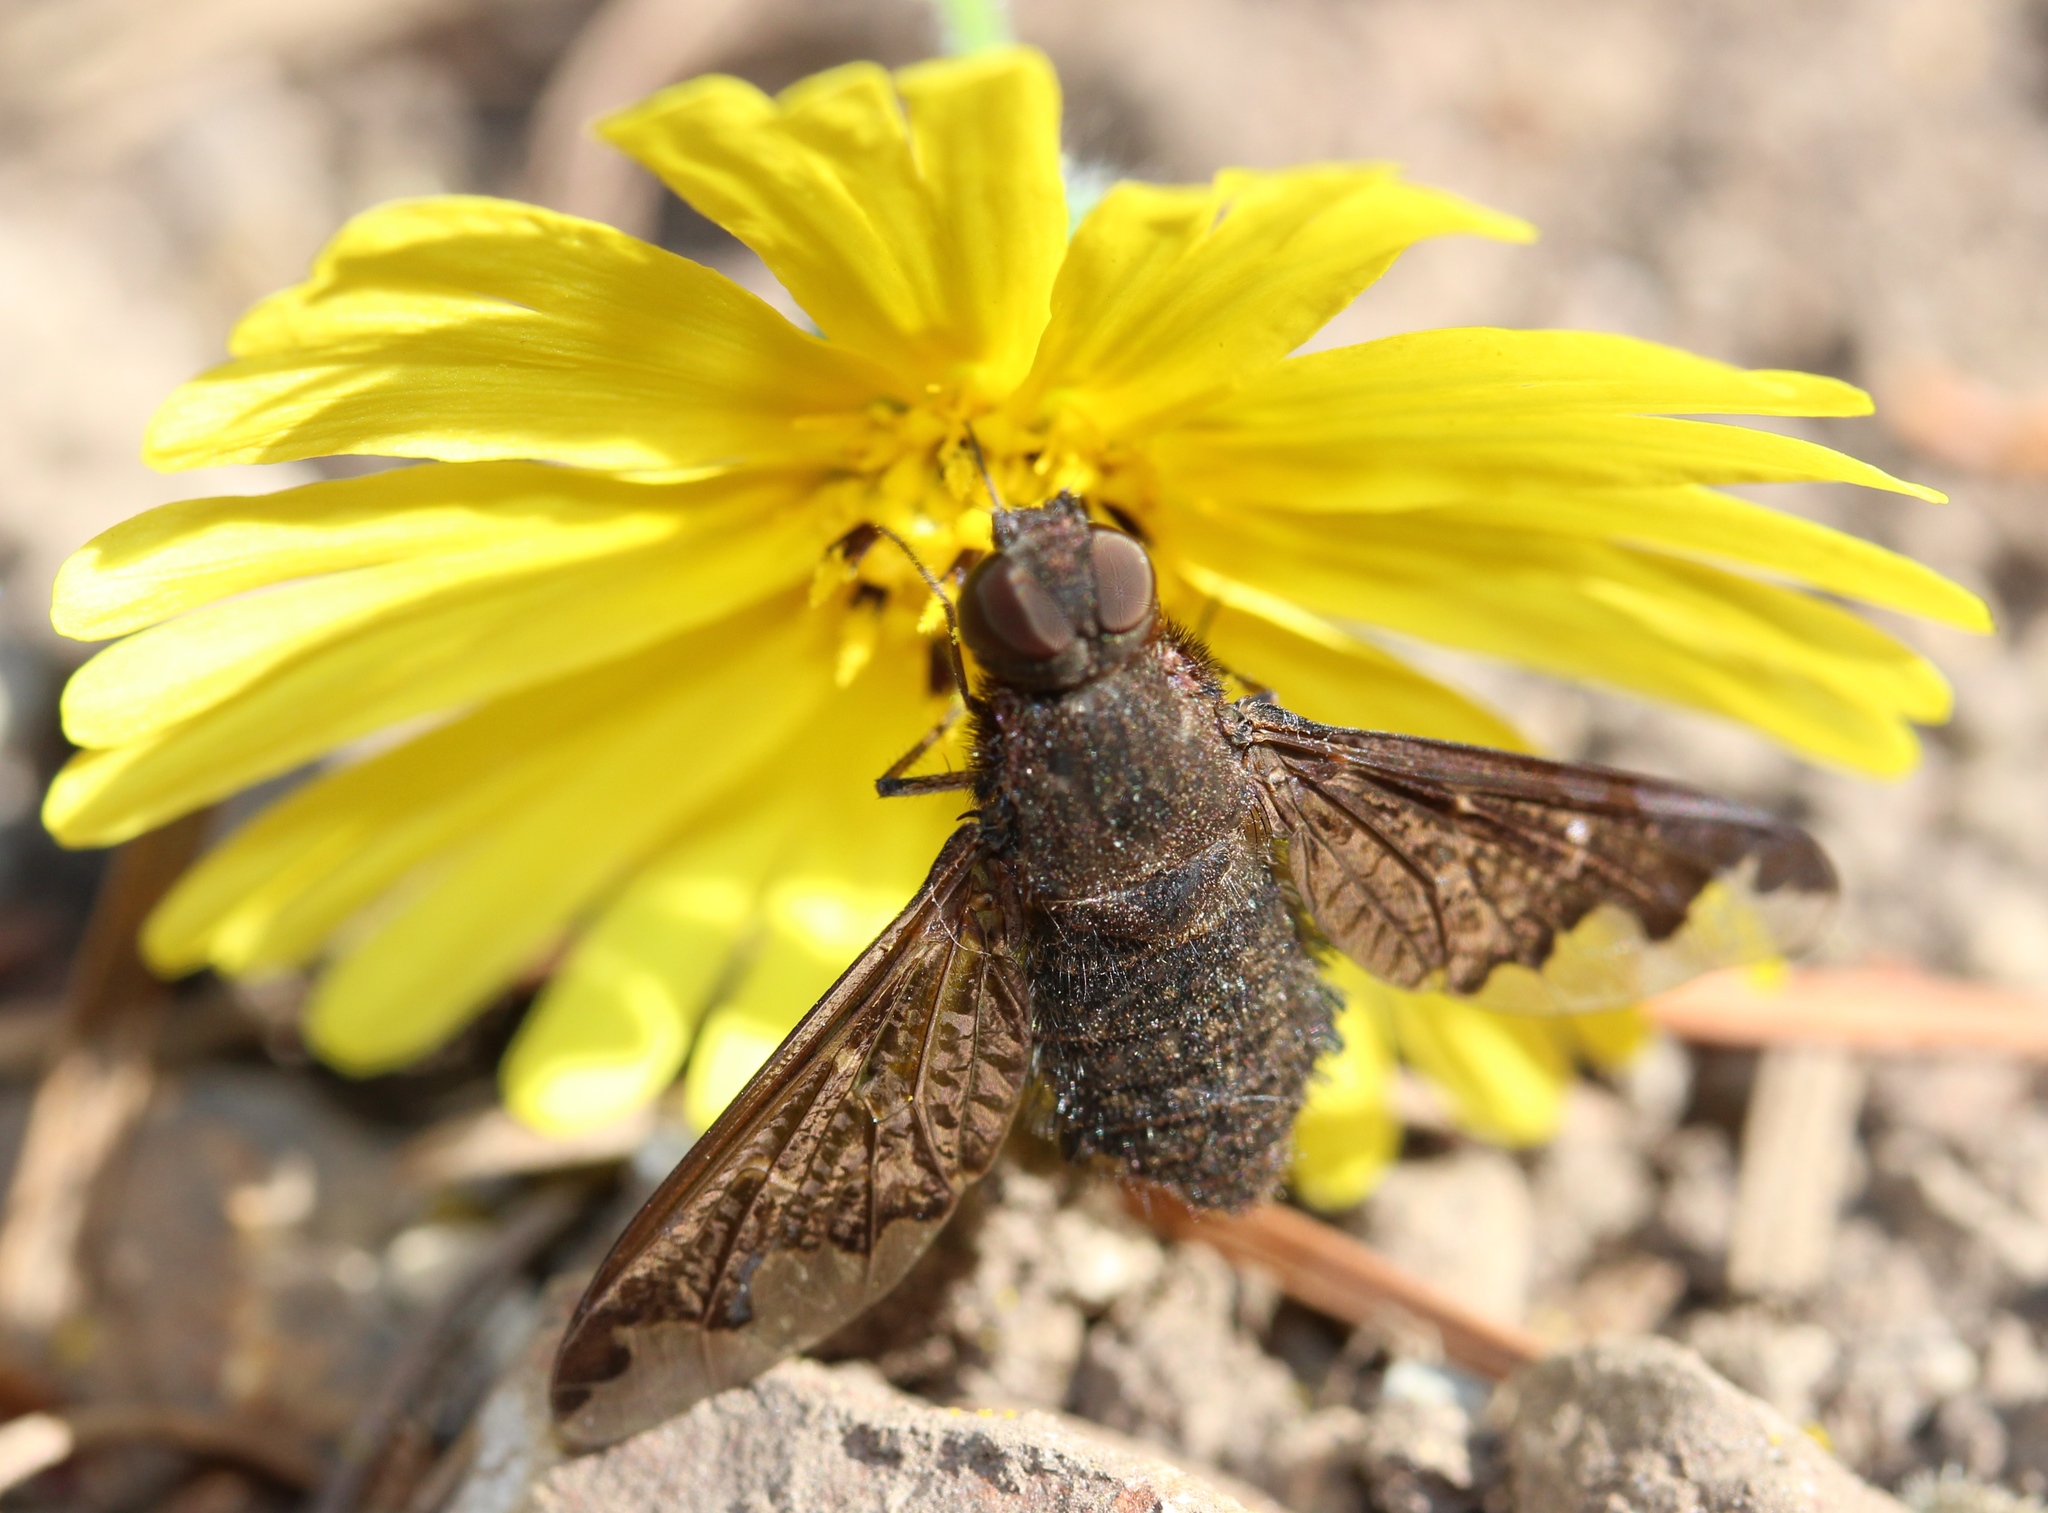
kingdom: Animalia
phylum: Arthropoda
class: Insecta
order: Diptera
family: Bombyliidae
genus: Hemipenthes
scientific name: Hemipenthes sinuosus
